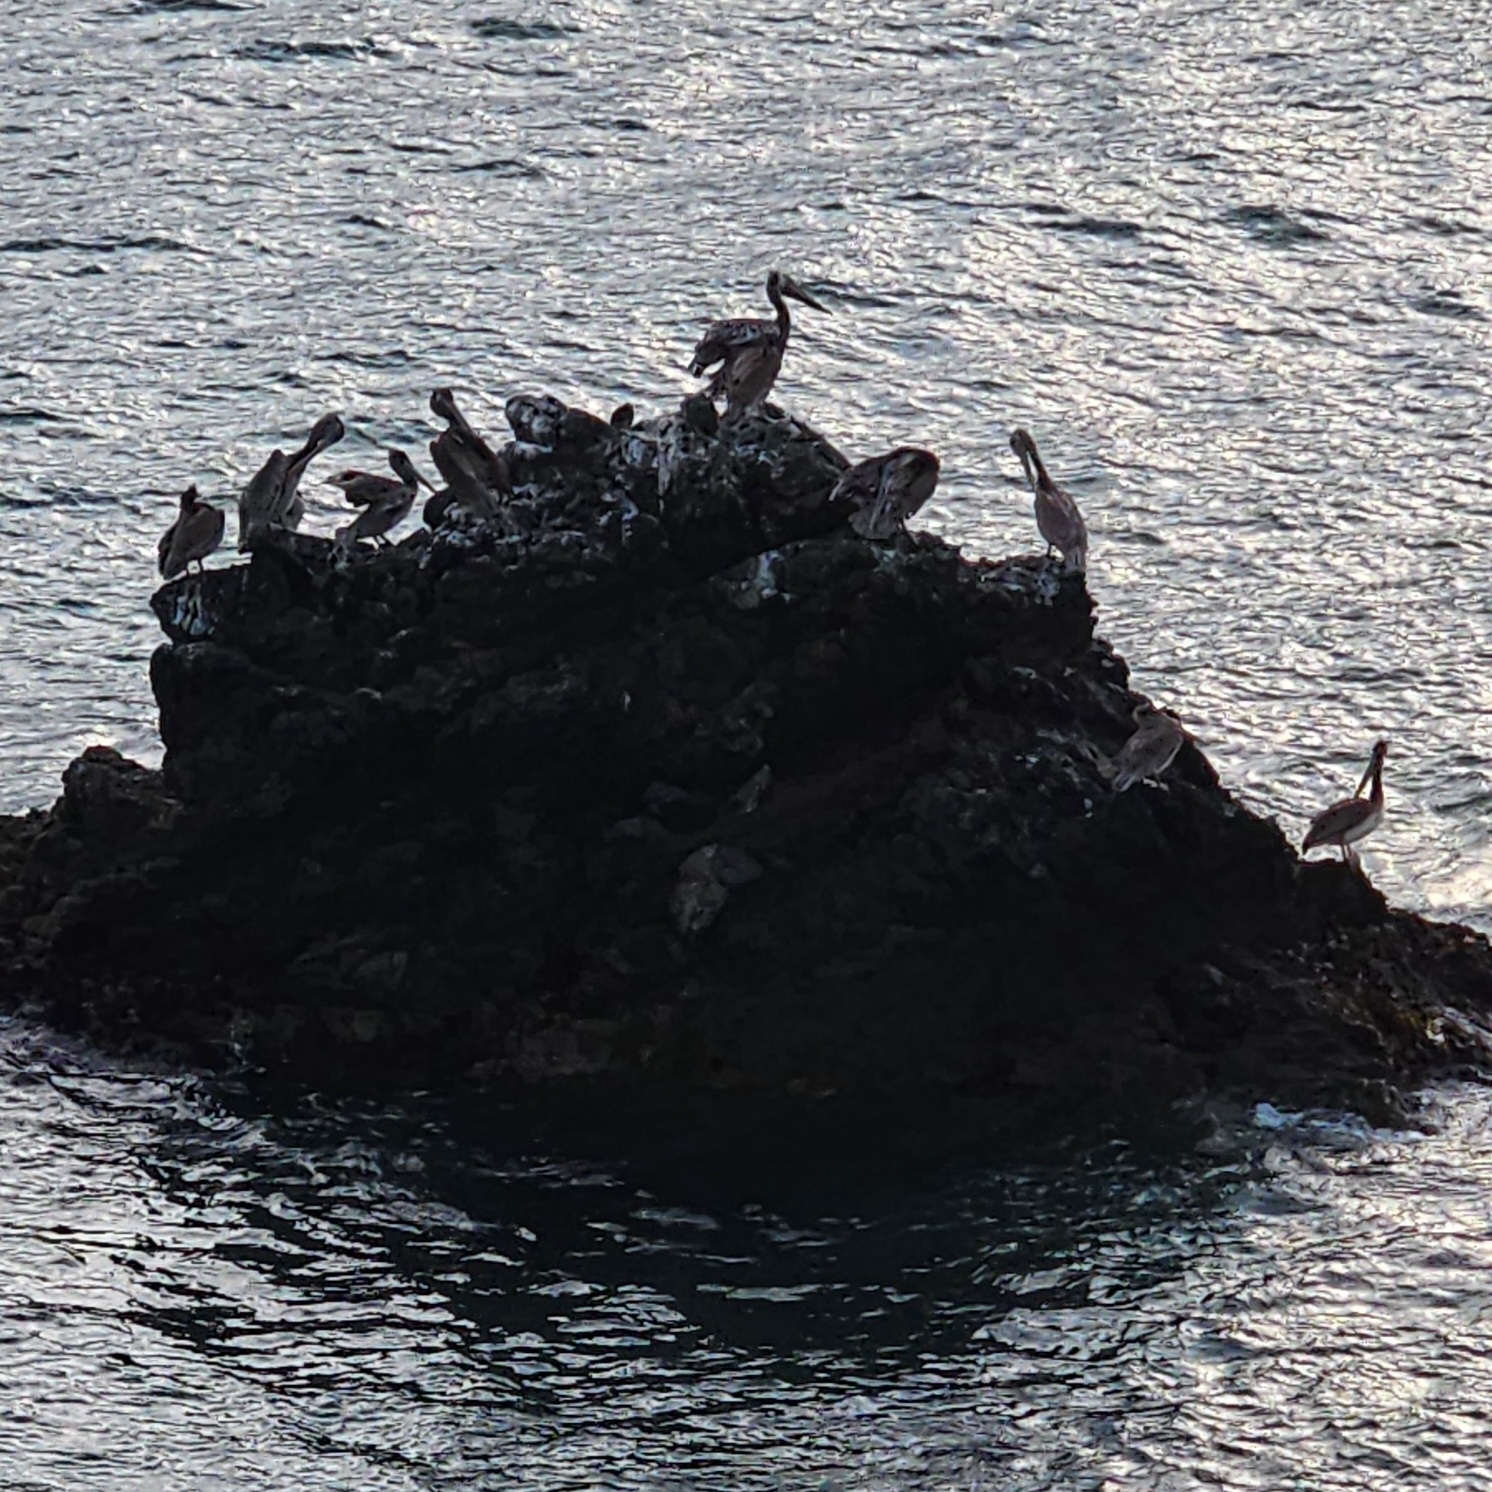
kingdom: Animalia
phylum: Chordata
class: Aves
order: Pelecaniformes
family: Pelecanidae
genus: Pelecanus
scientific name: Pelecanus occidentalis
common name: Brown pelican
